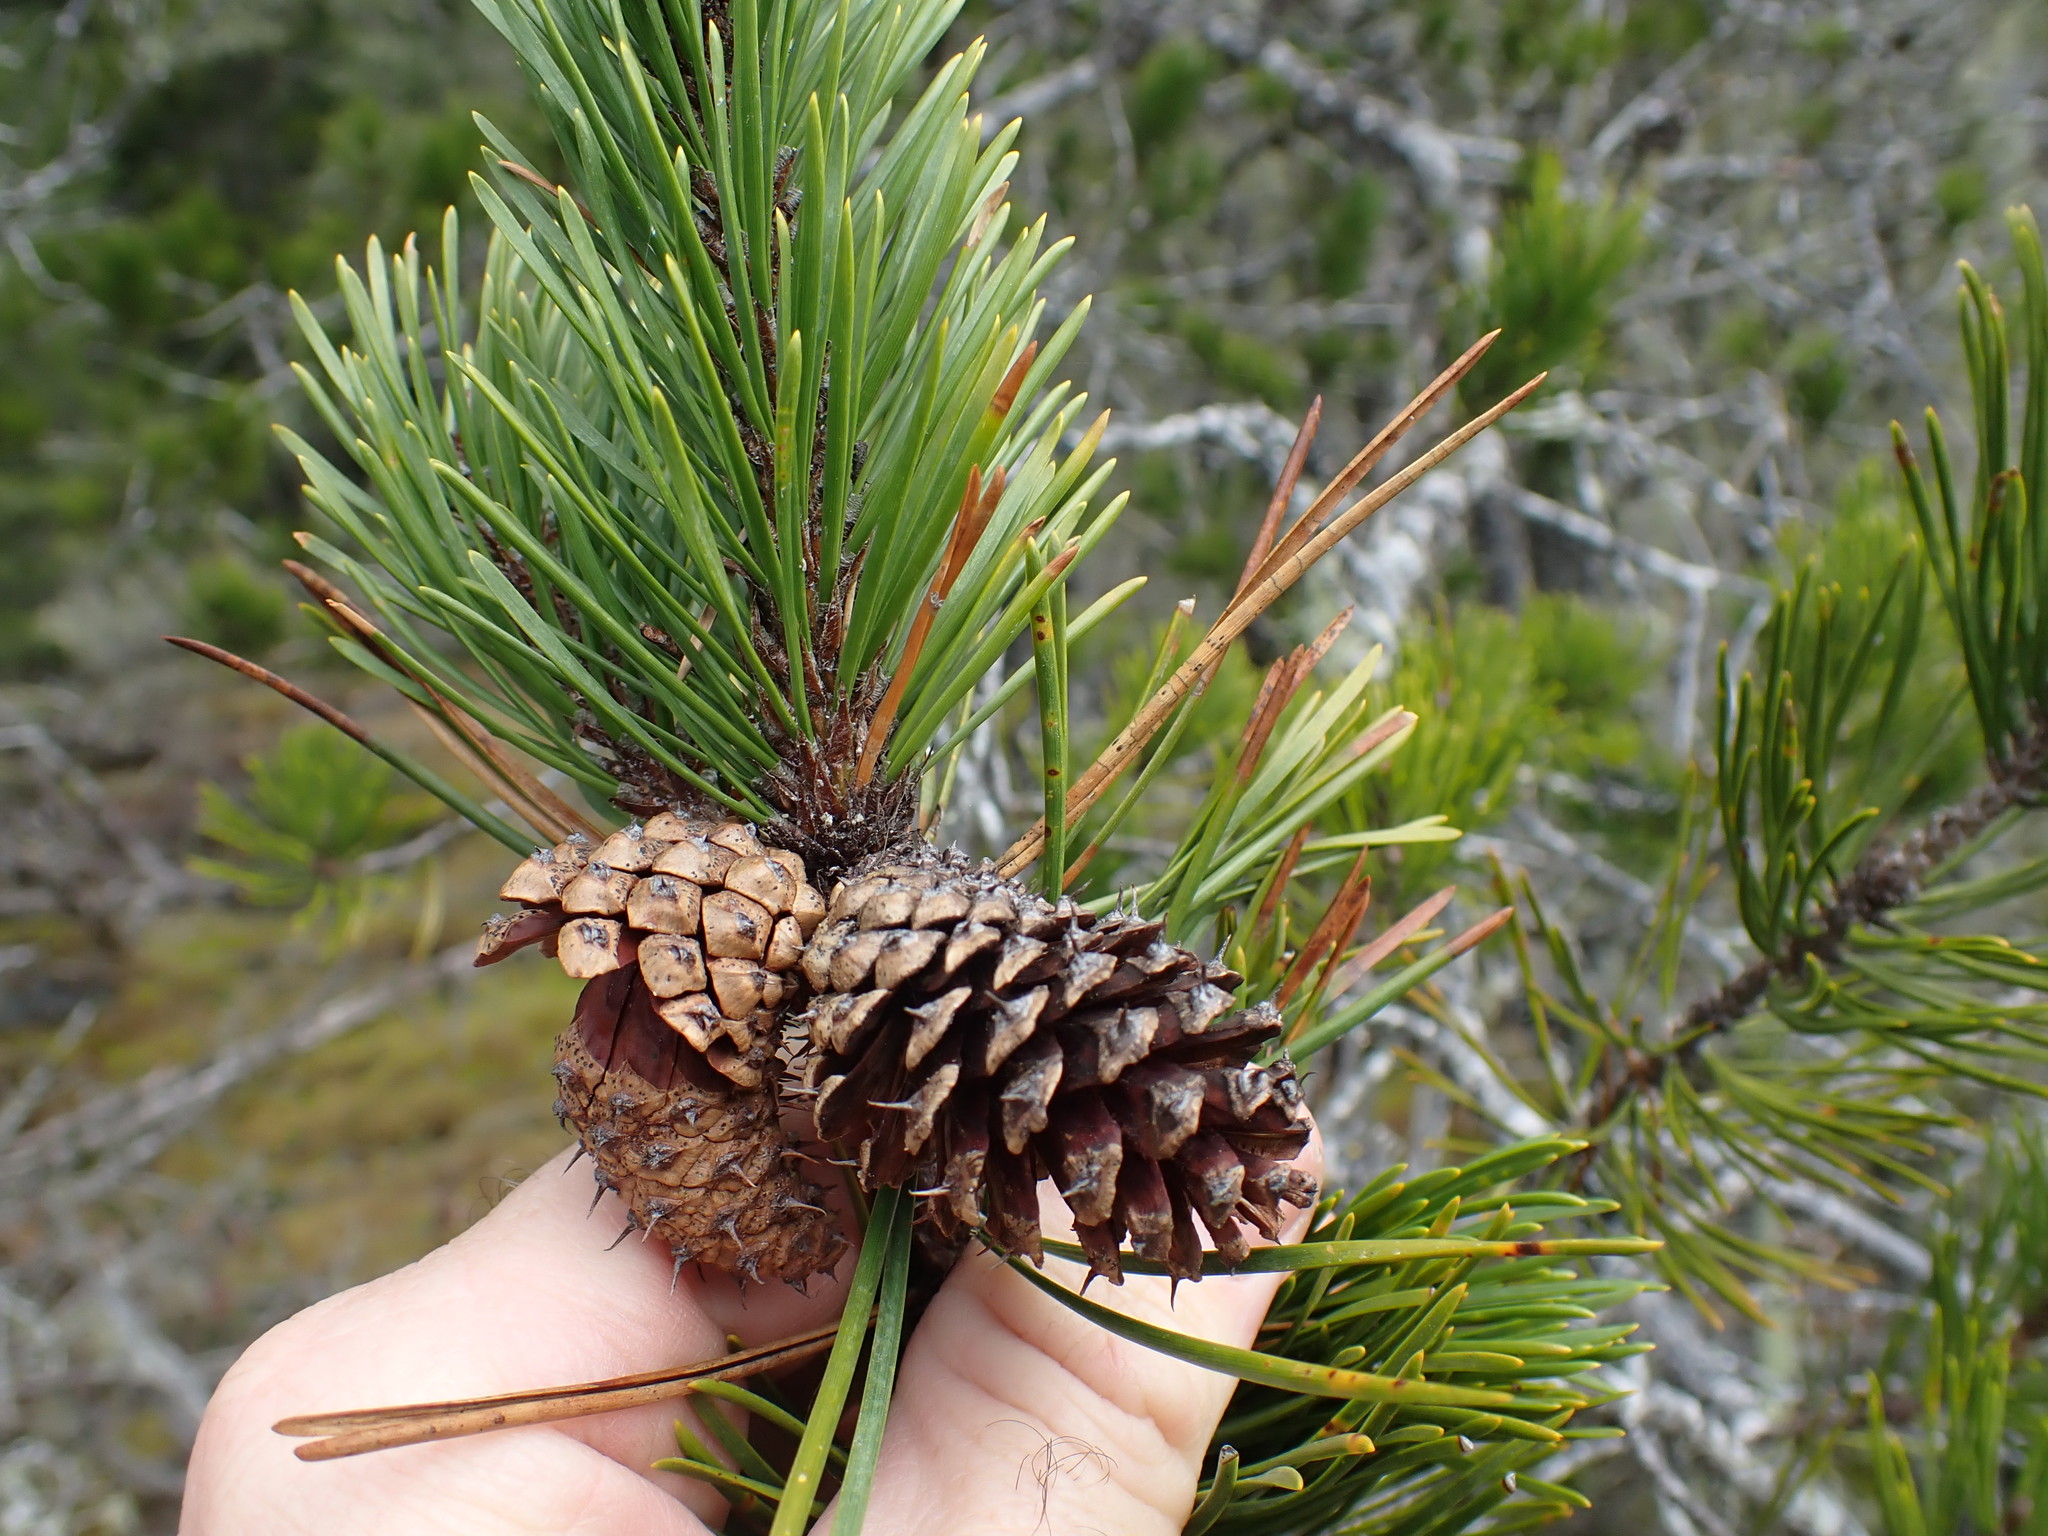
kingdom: Plantae
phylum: Tracheophyta
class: Pinopsida
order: Pinales
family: Pinaceae
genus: Pinus
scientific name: Pinus contorta
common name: Lodgepole pine
